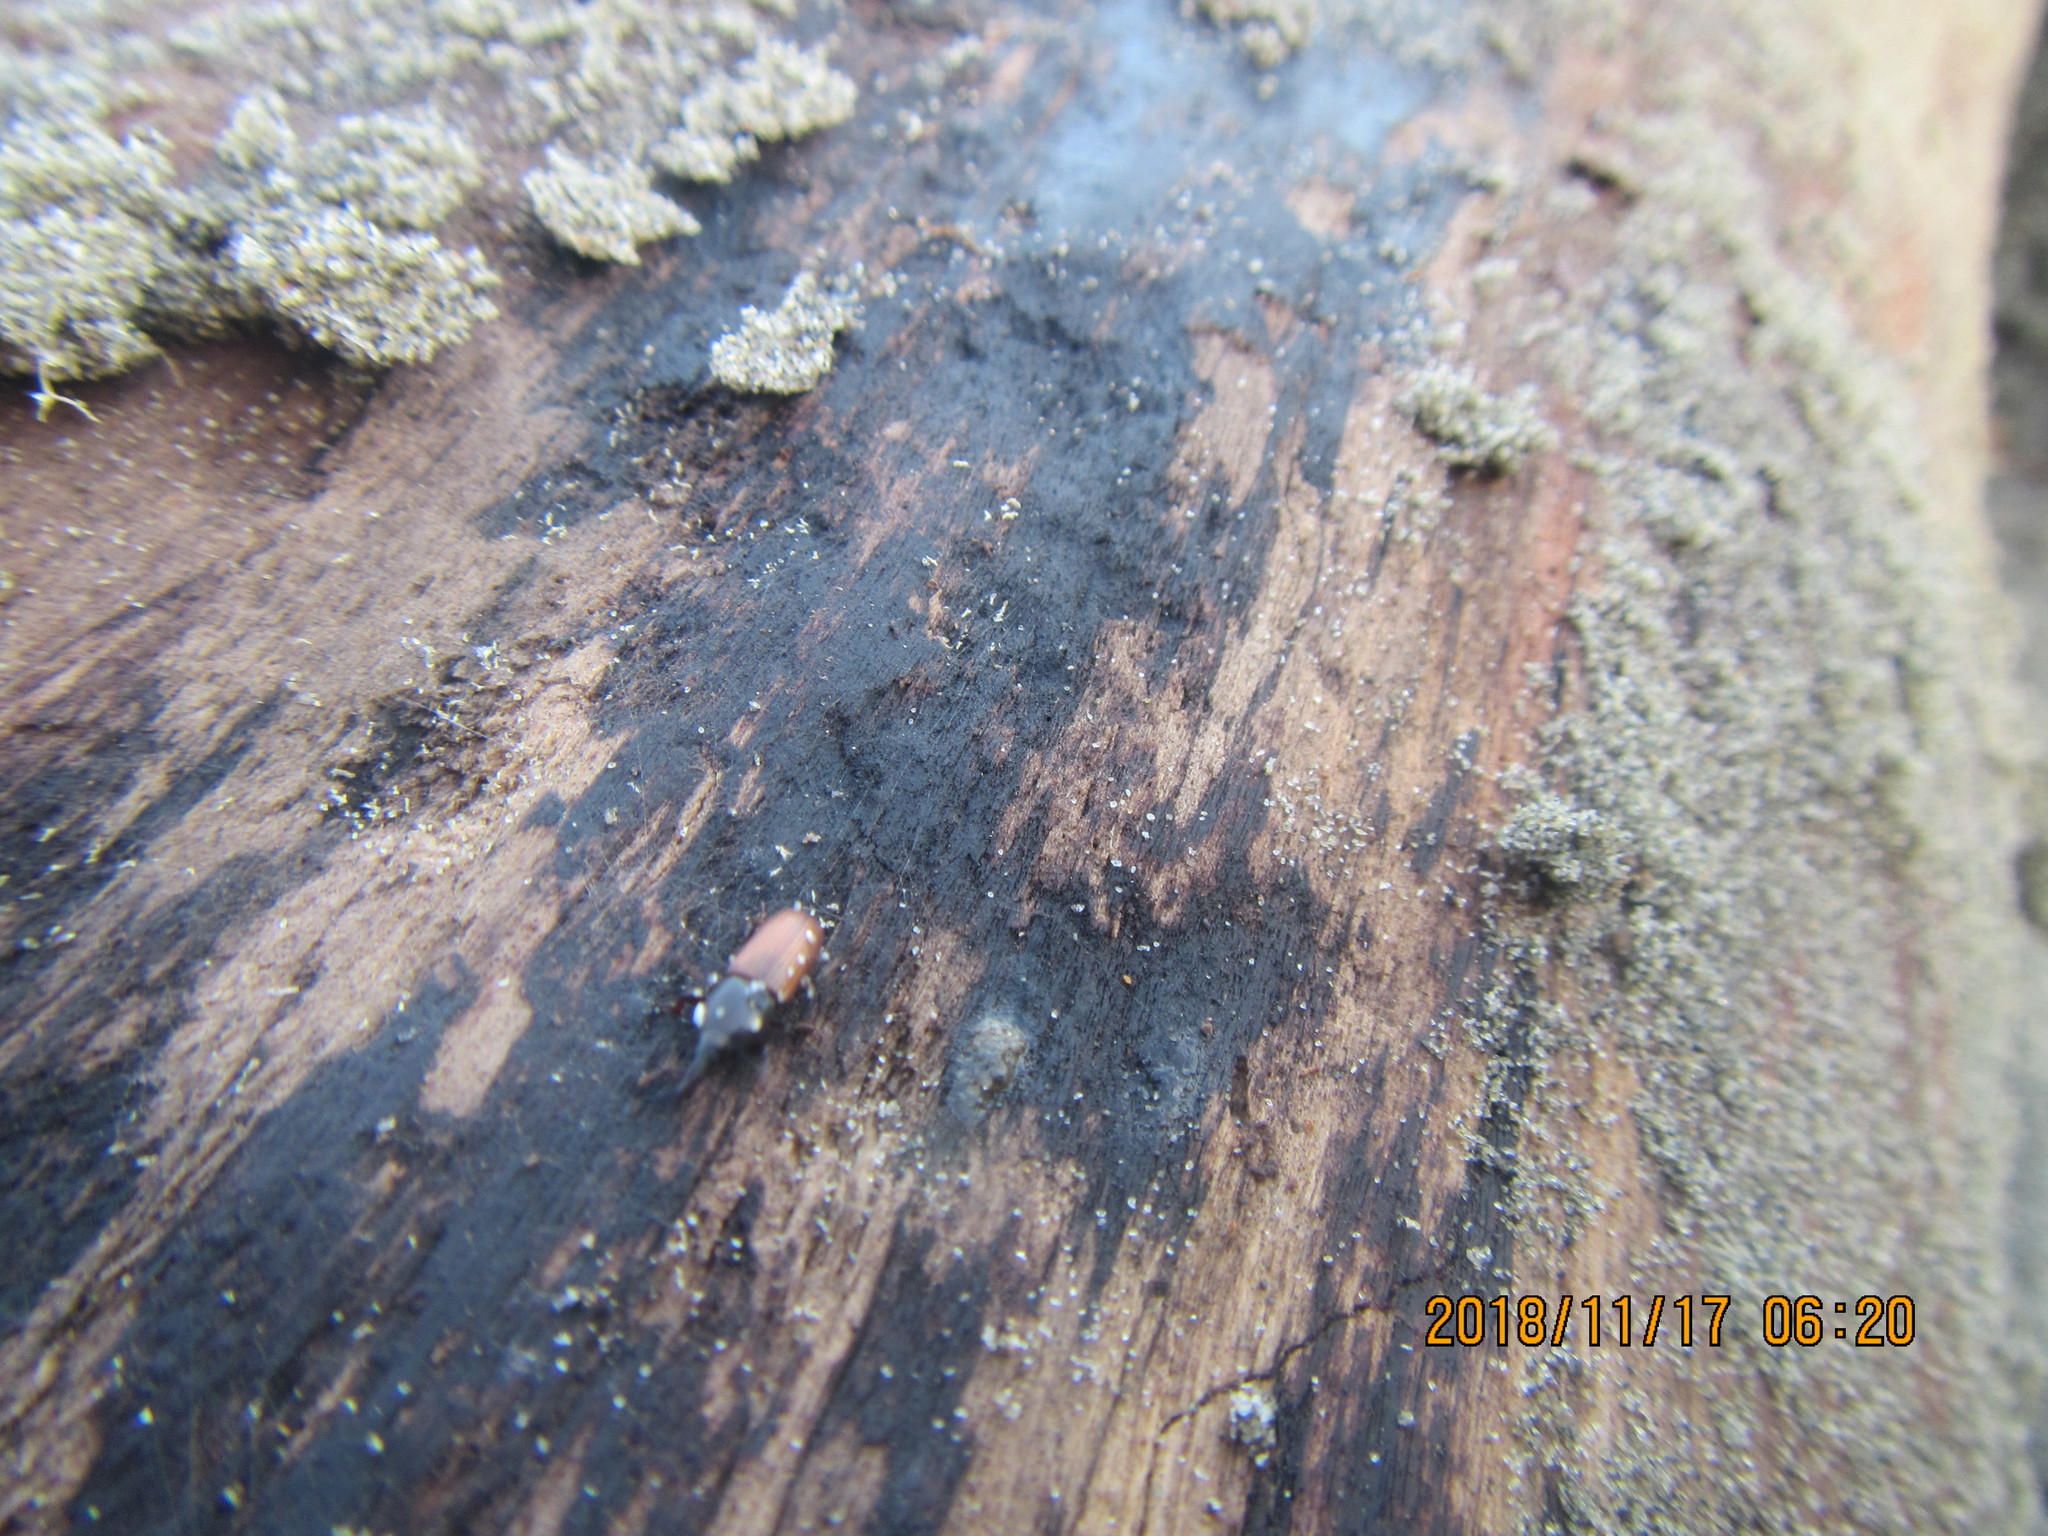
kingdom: Animalia
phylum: Arthropoda
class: Insecta
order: Coleoptera
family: Curculionidae
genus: Mesites
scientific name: Mesites pallidipennis
